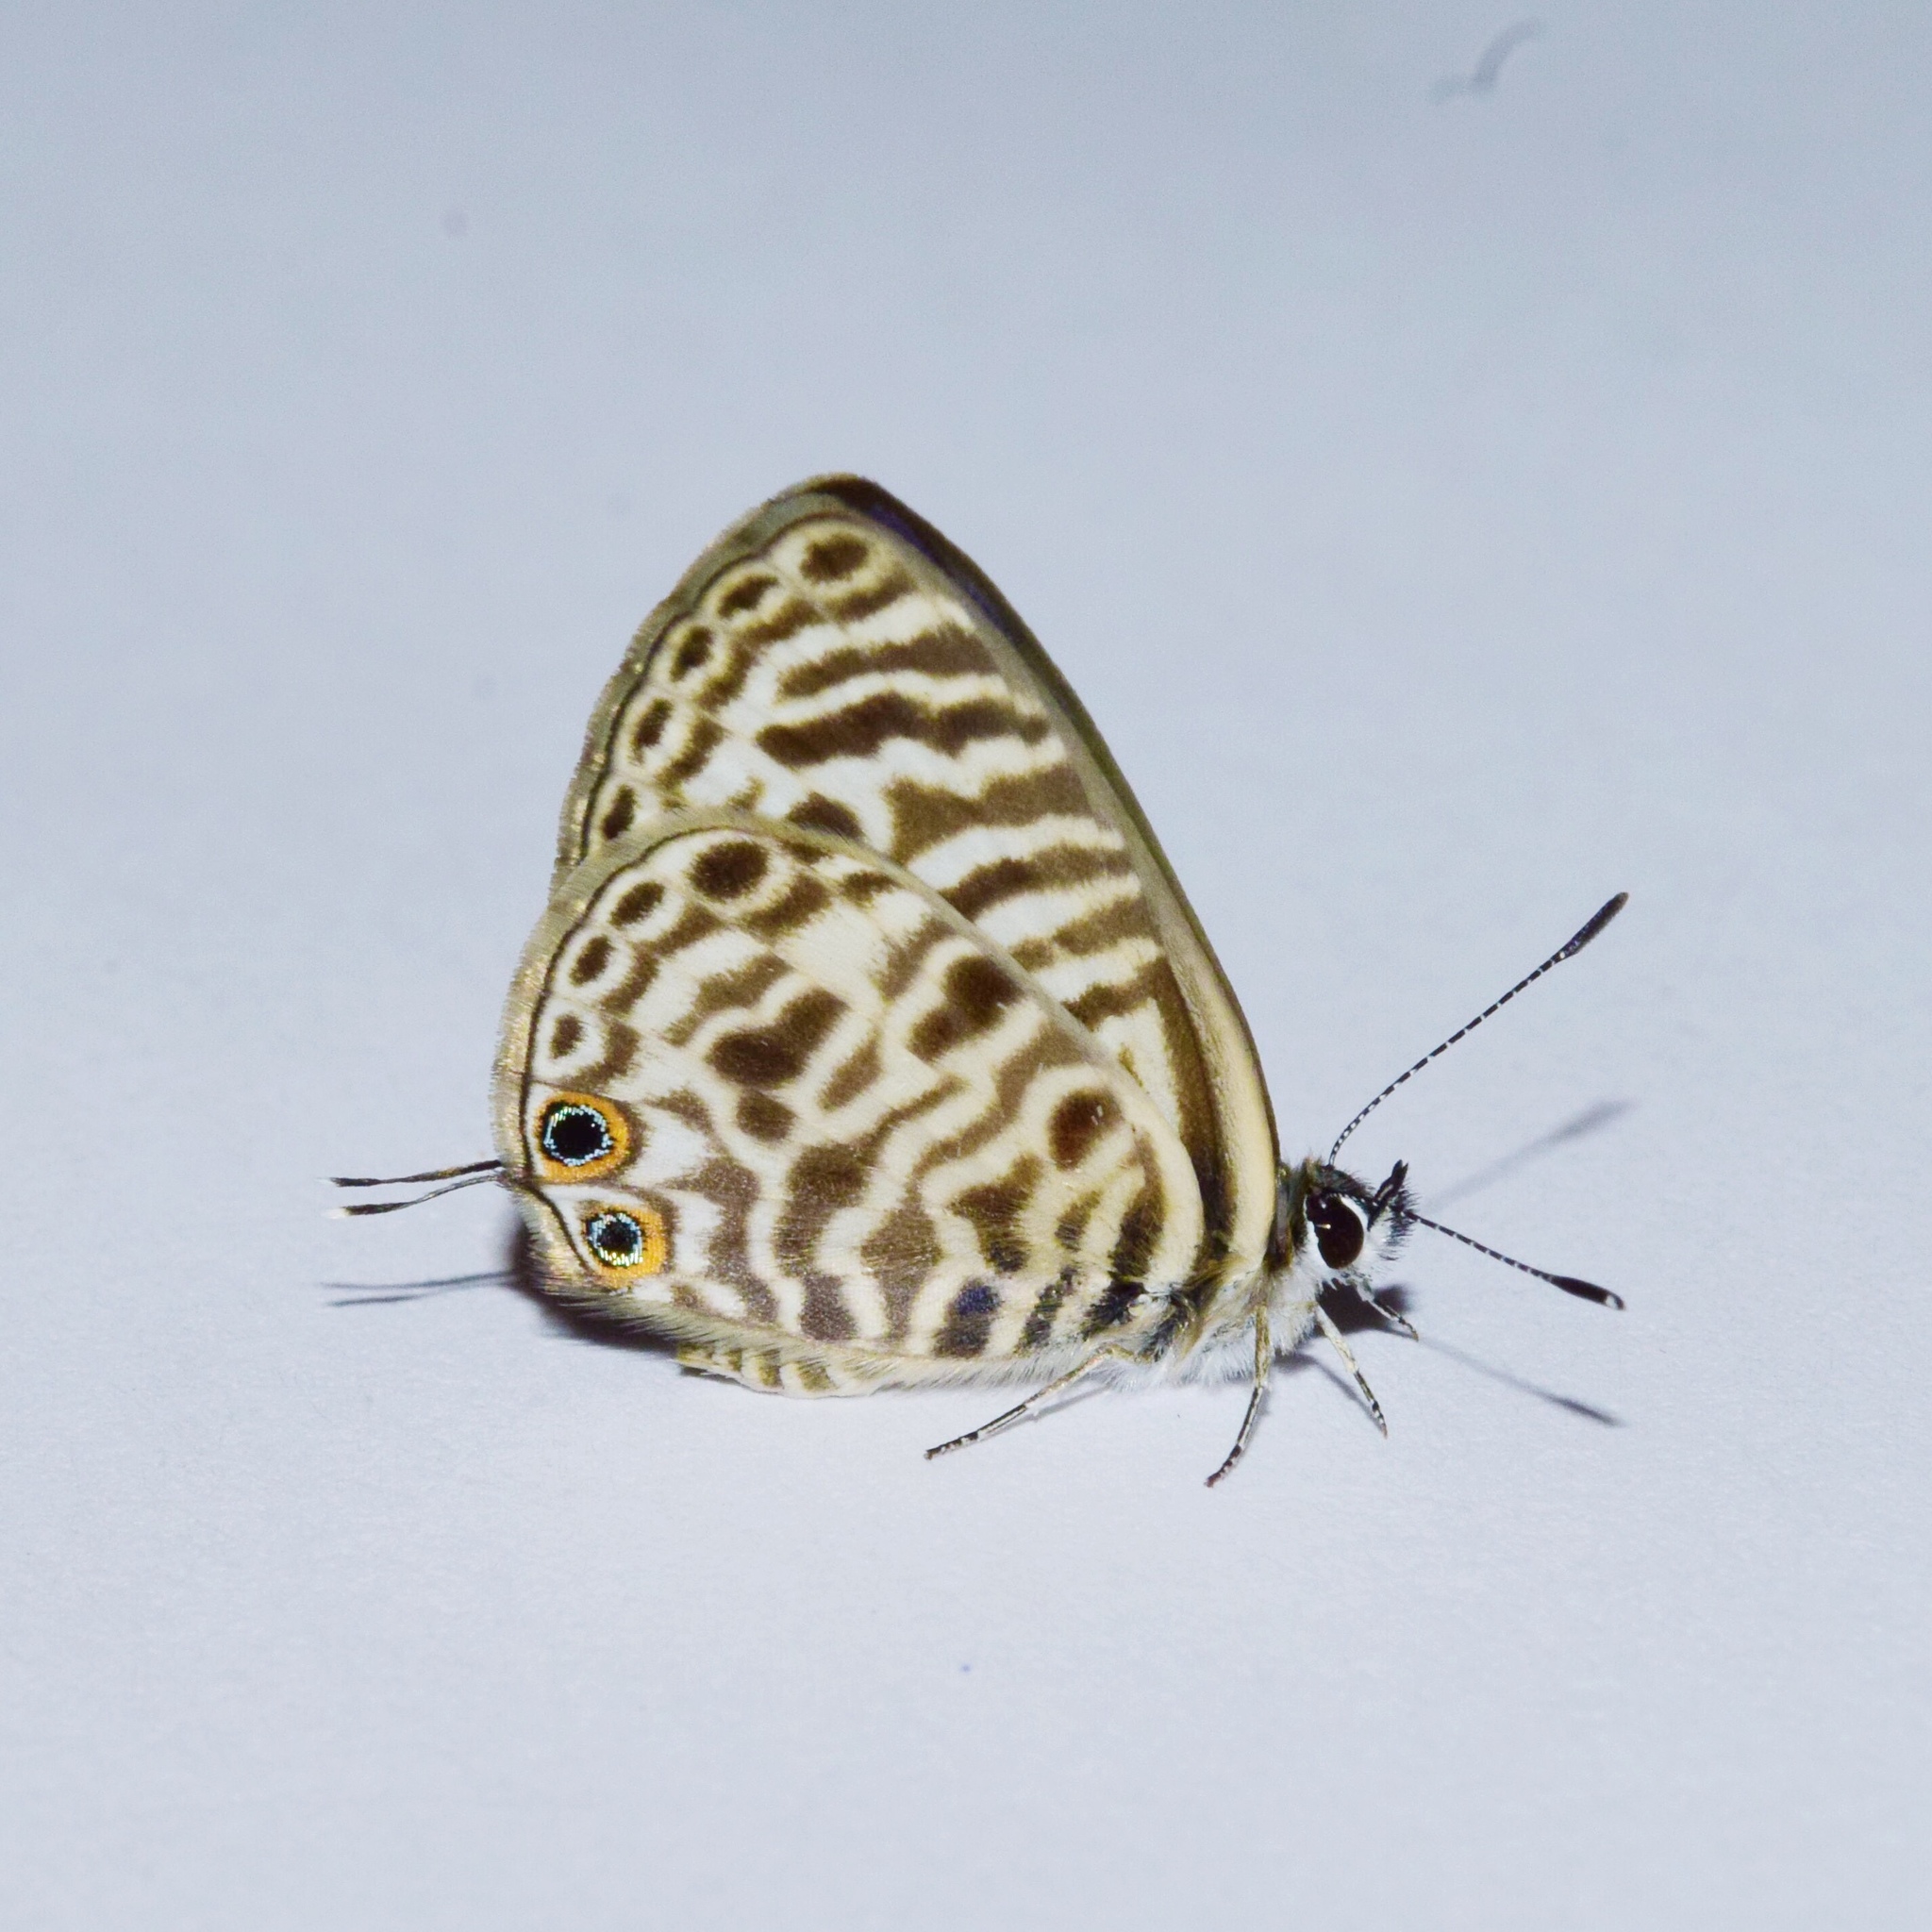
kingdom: Animalia
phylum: Arthropoda
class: Insecta
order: Lepidoptera
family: Lycaenidae
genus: Leptotes
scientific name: Leptotes
